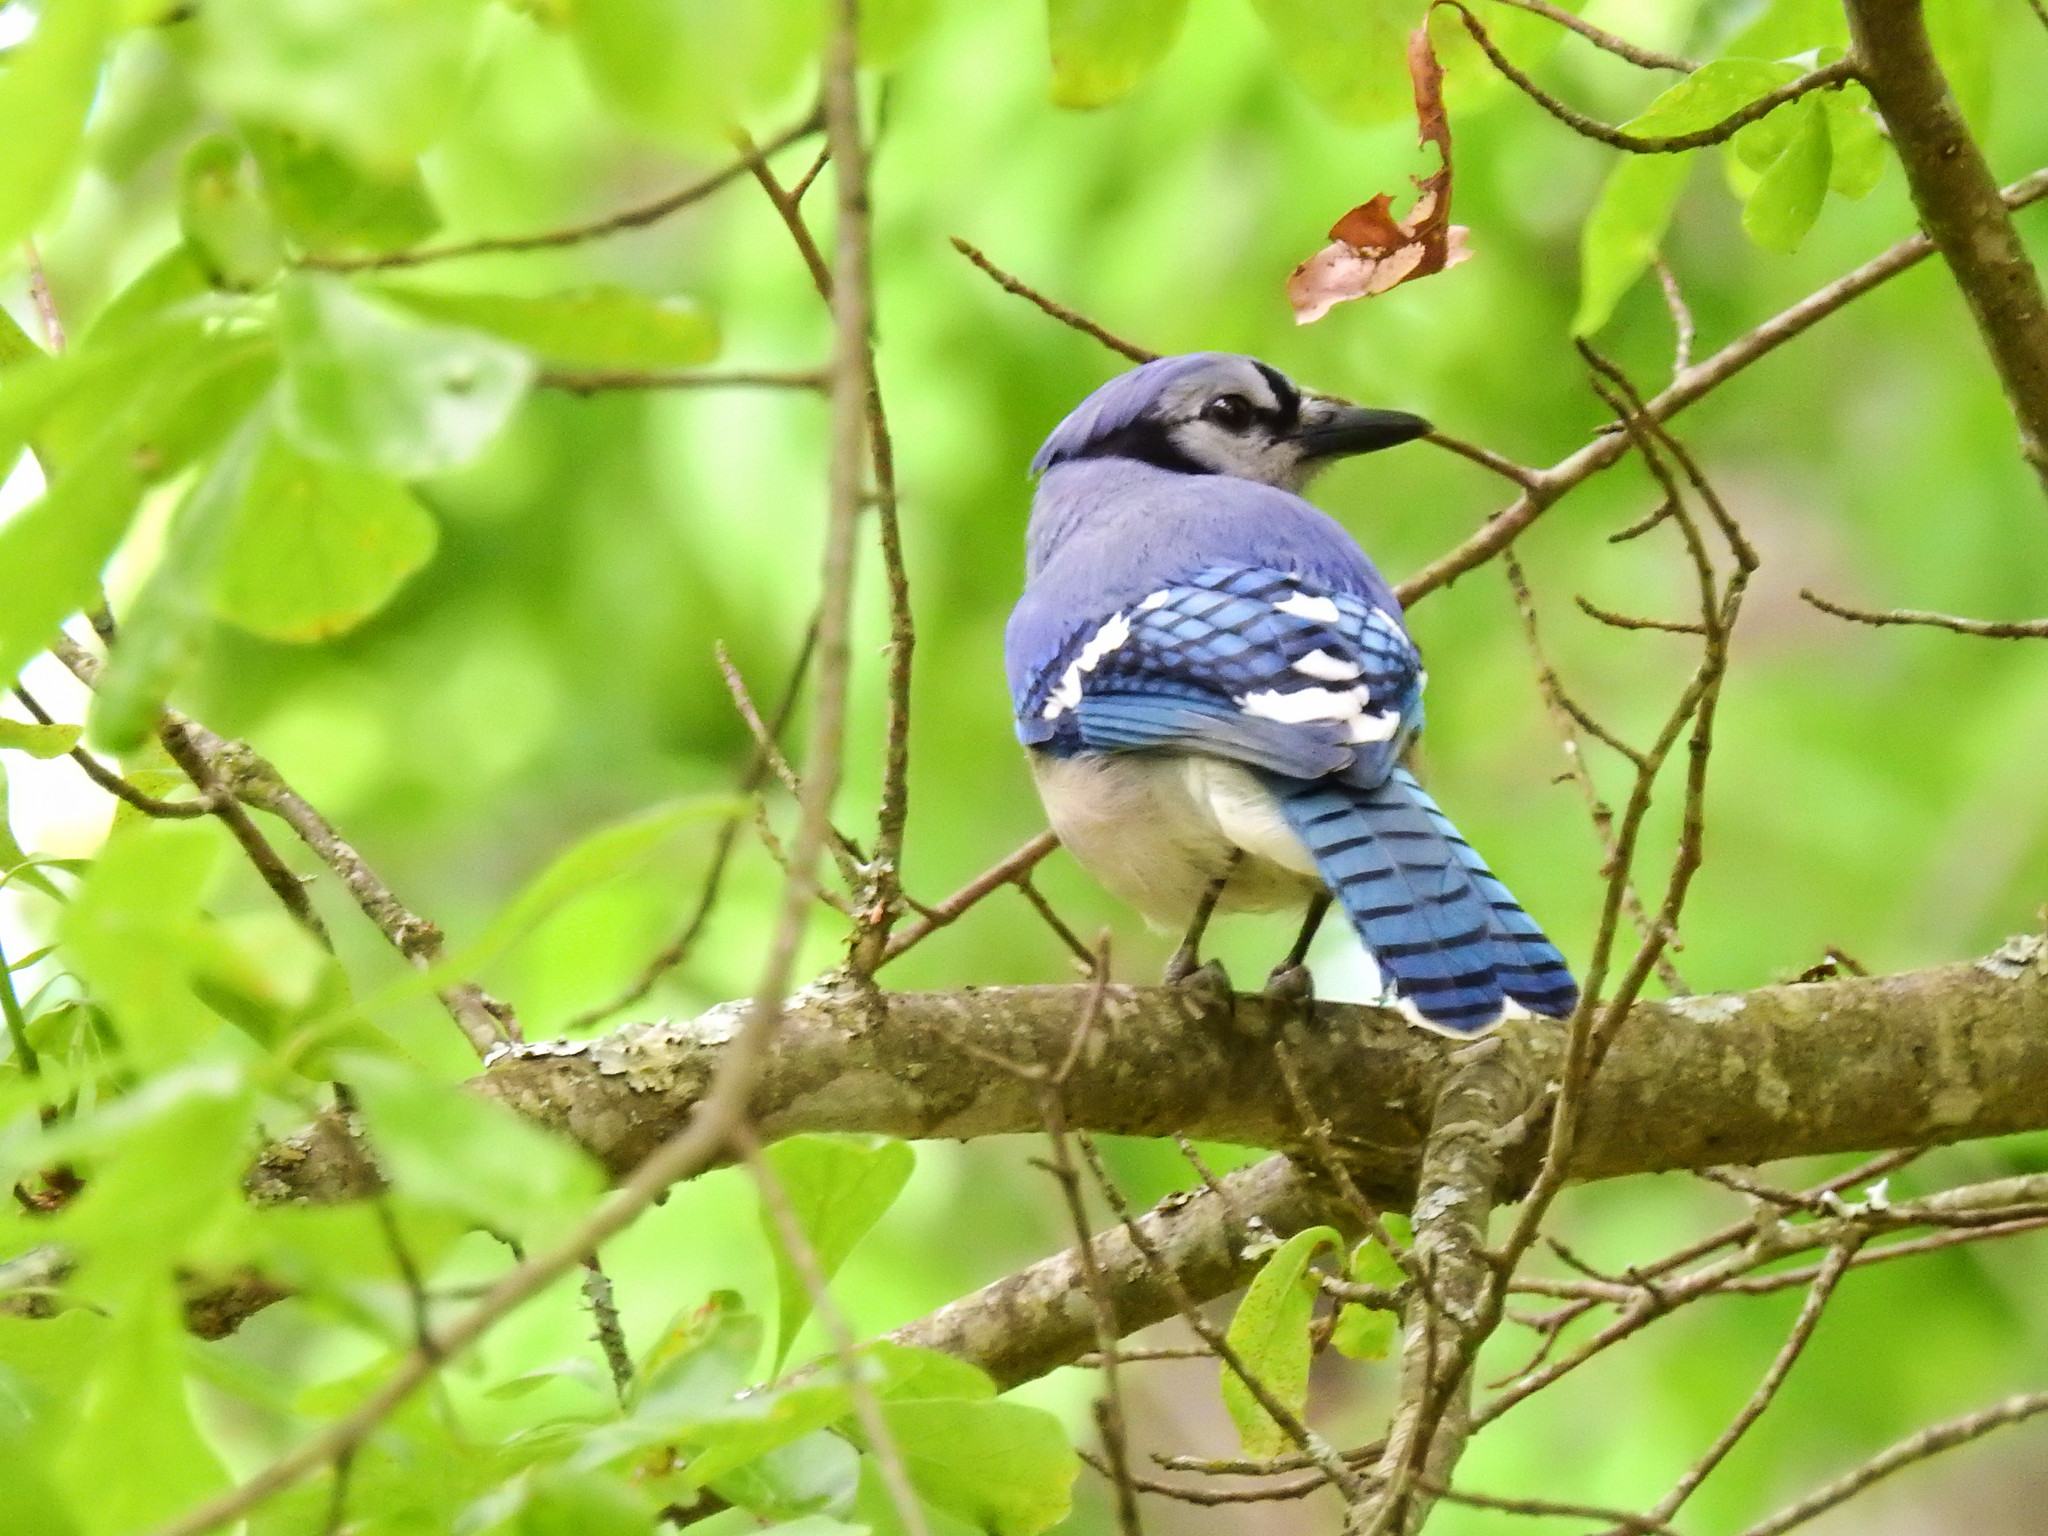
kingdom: Animalia
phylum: Chordata
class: Aves
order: Passeriformes
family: Corvidae
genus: Cyanocitta
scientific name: Cyanocitta cristata
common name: Blue jay
